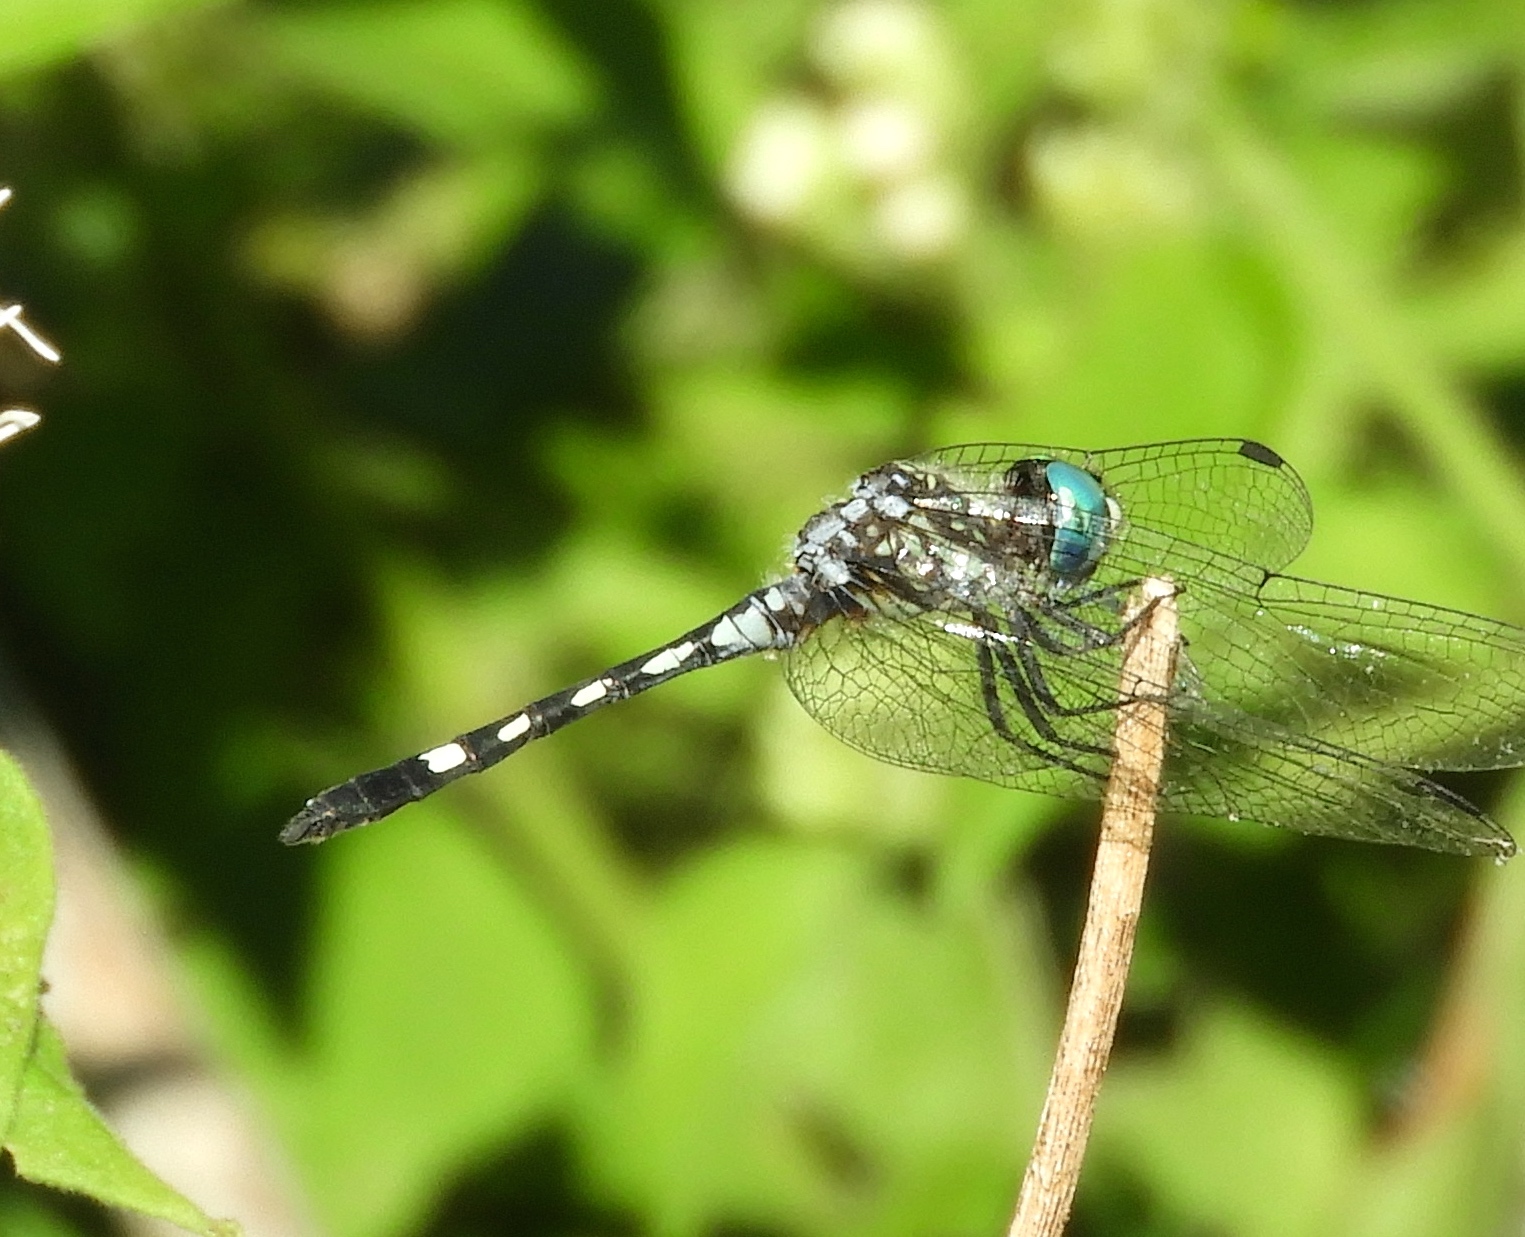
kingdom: Animalia
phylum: Arthropoda
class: Insecta
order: Odonata
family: Libellulidae
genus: Micrathyria
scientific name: Micrathyria hagenii
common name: Thornbush dasher
